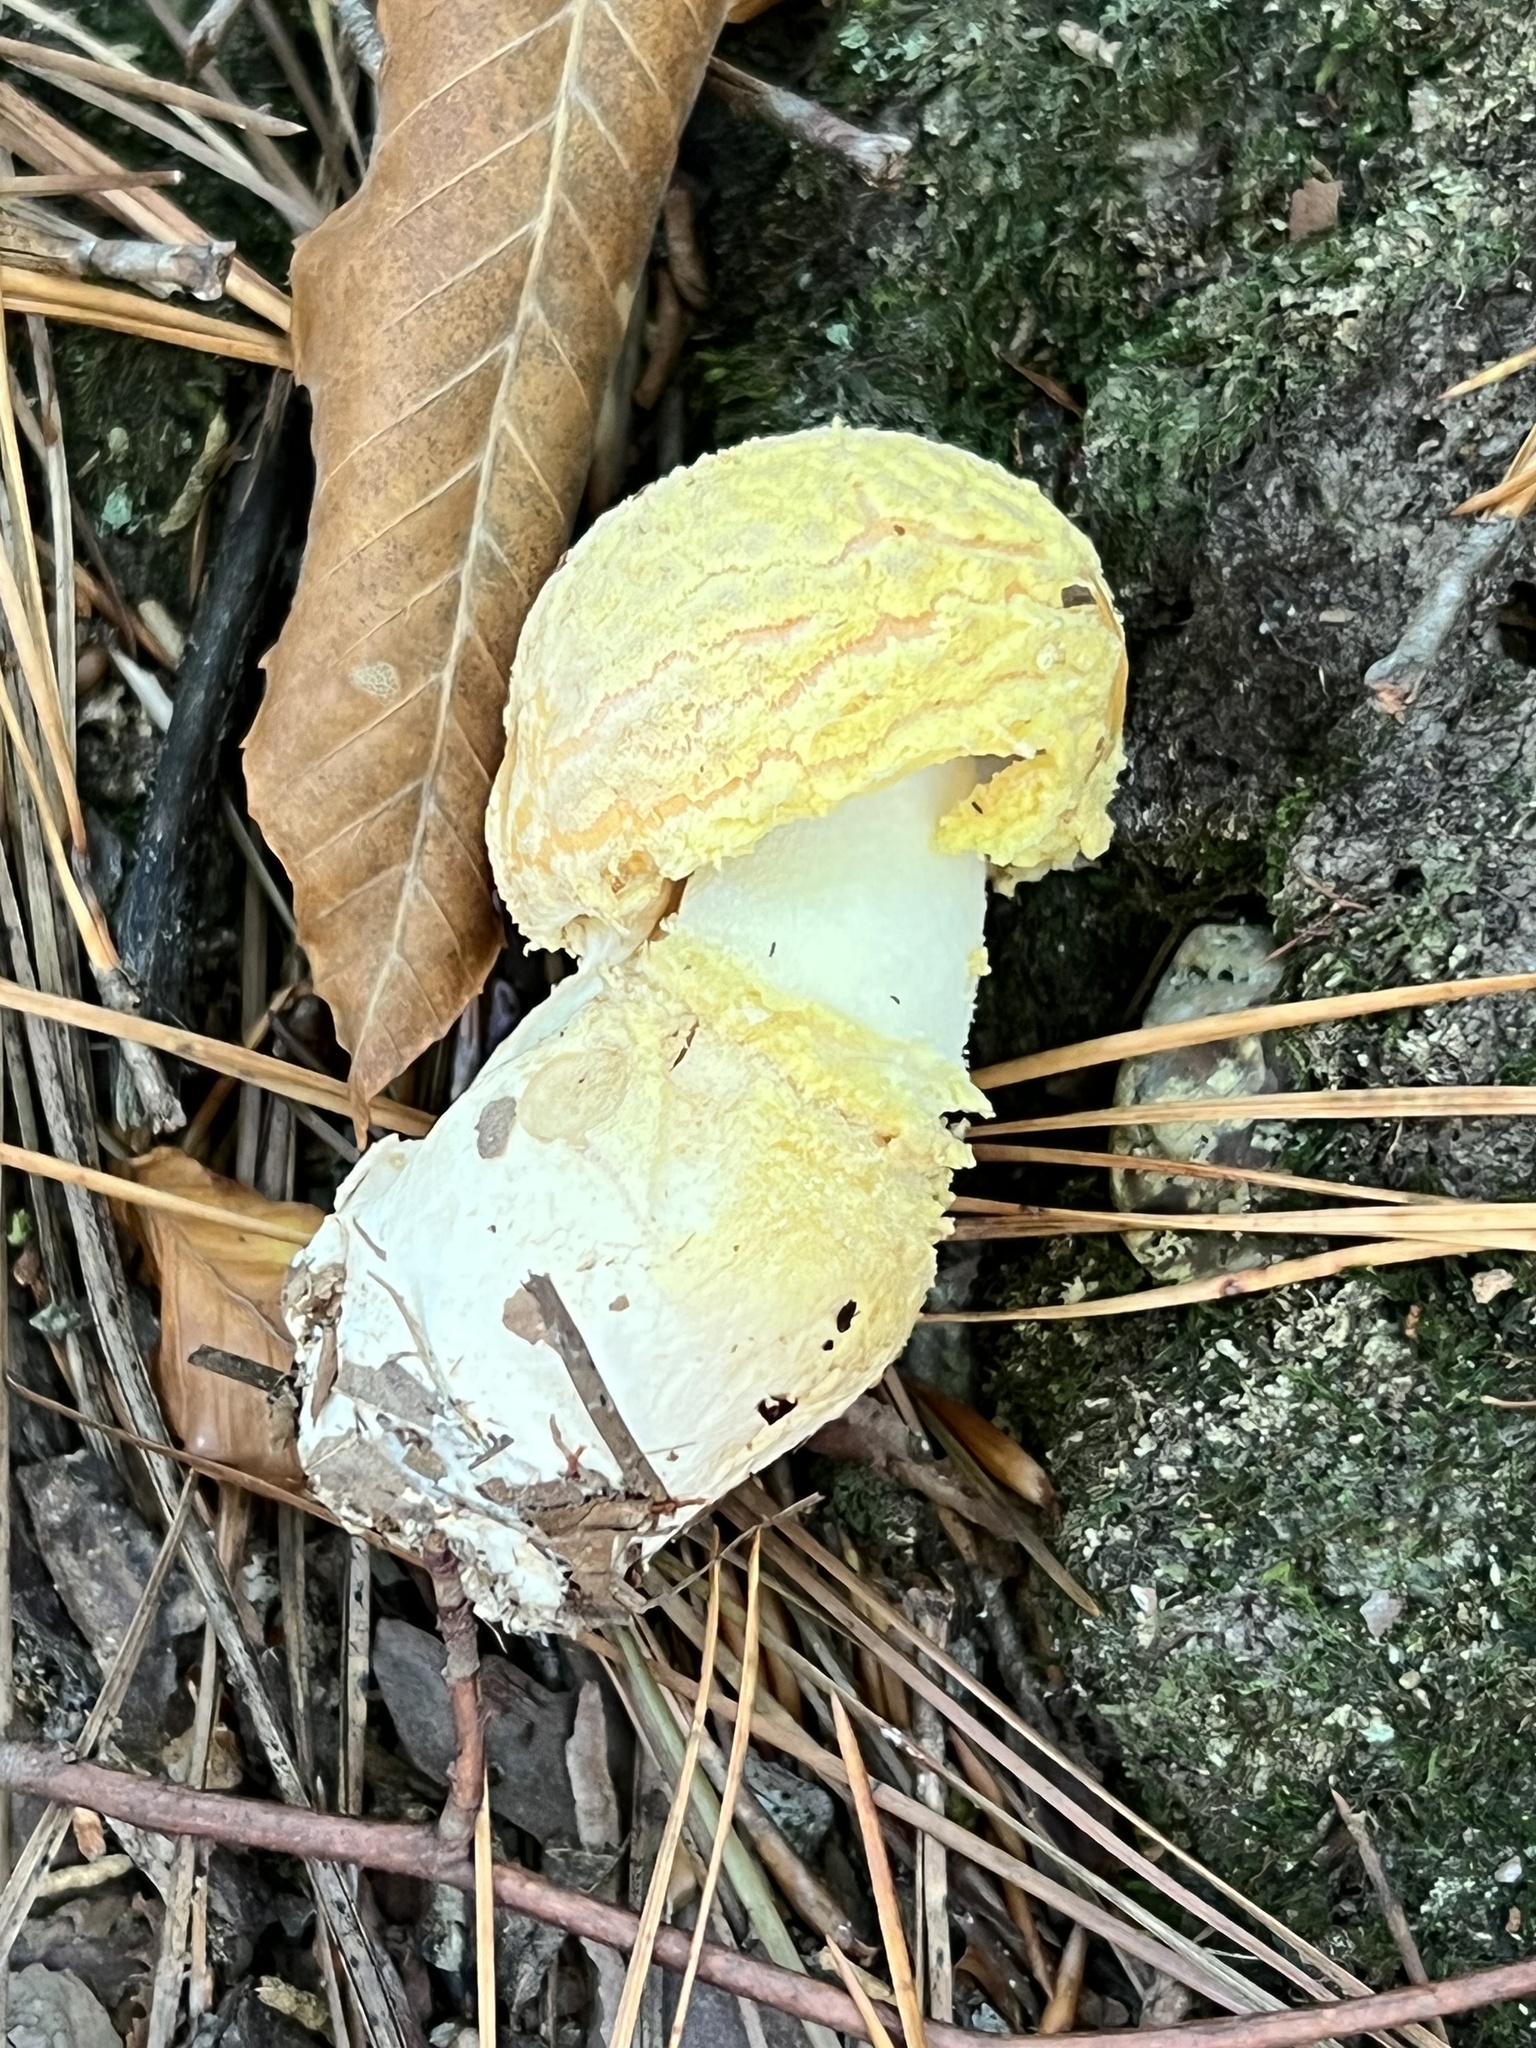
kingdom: Fungi
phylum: Basidiomycota
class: Agaricomycetes
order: Agaricales
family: Amanitaceae
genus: Amanita
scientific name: Amanita wellsii
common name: Salmon amanita
